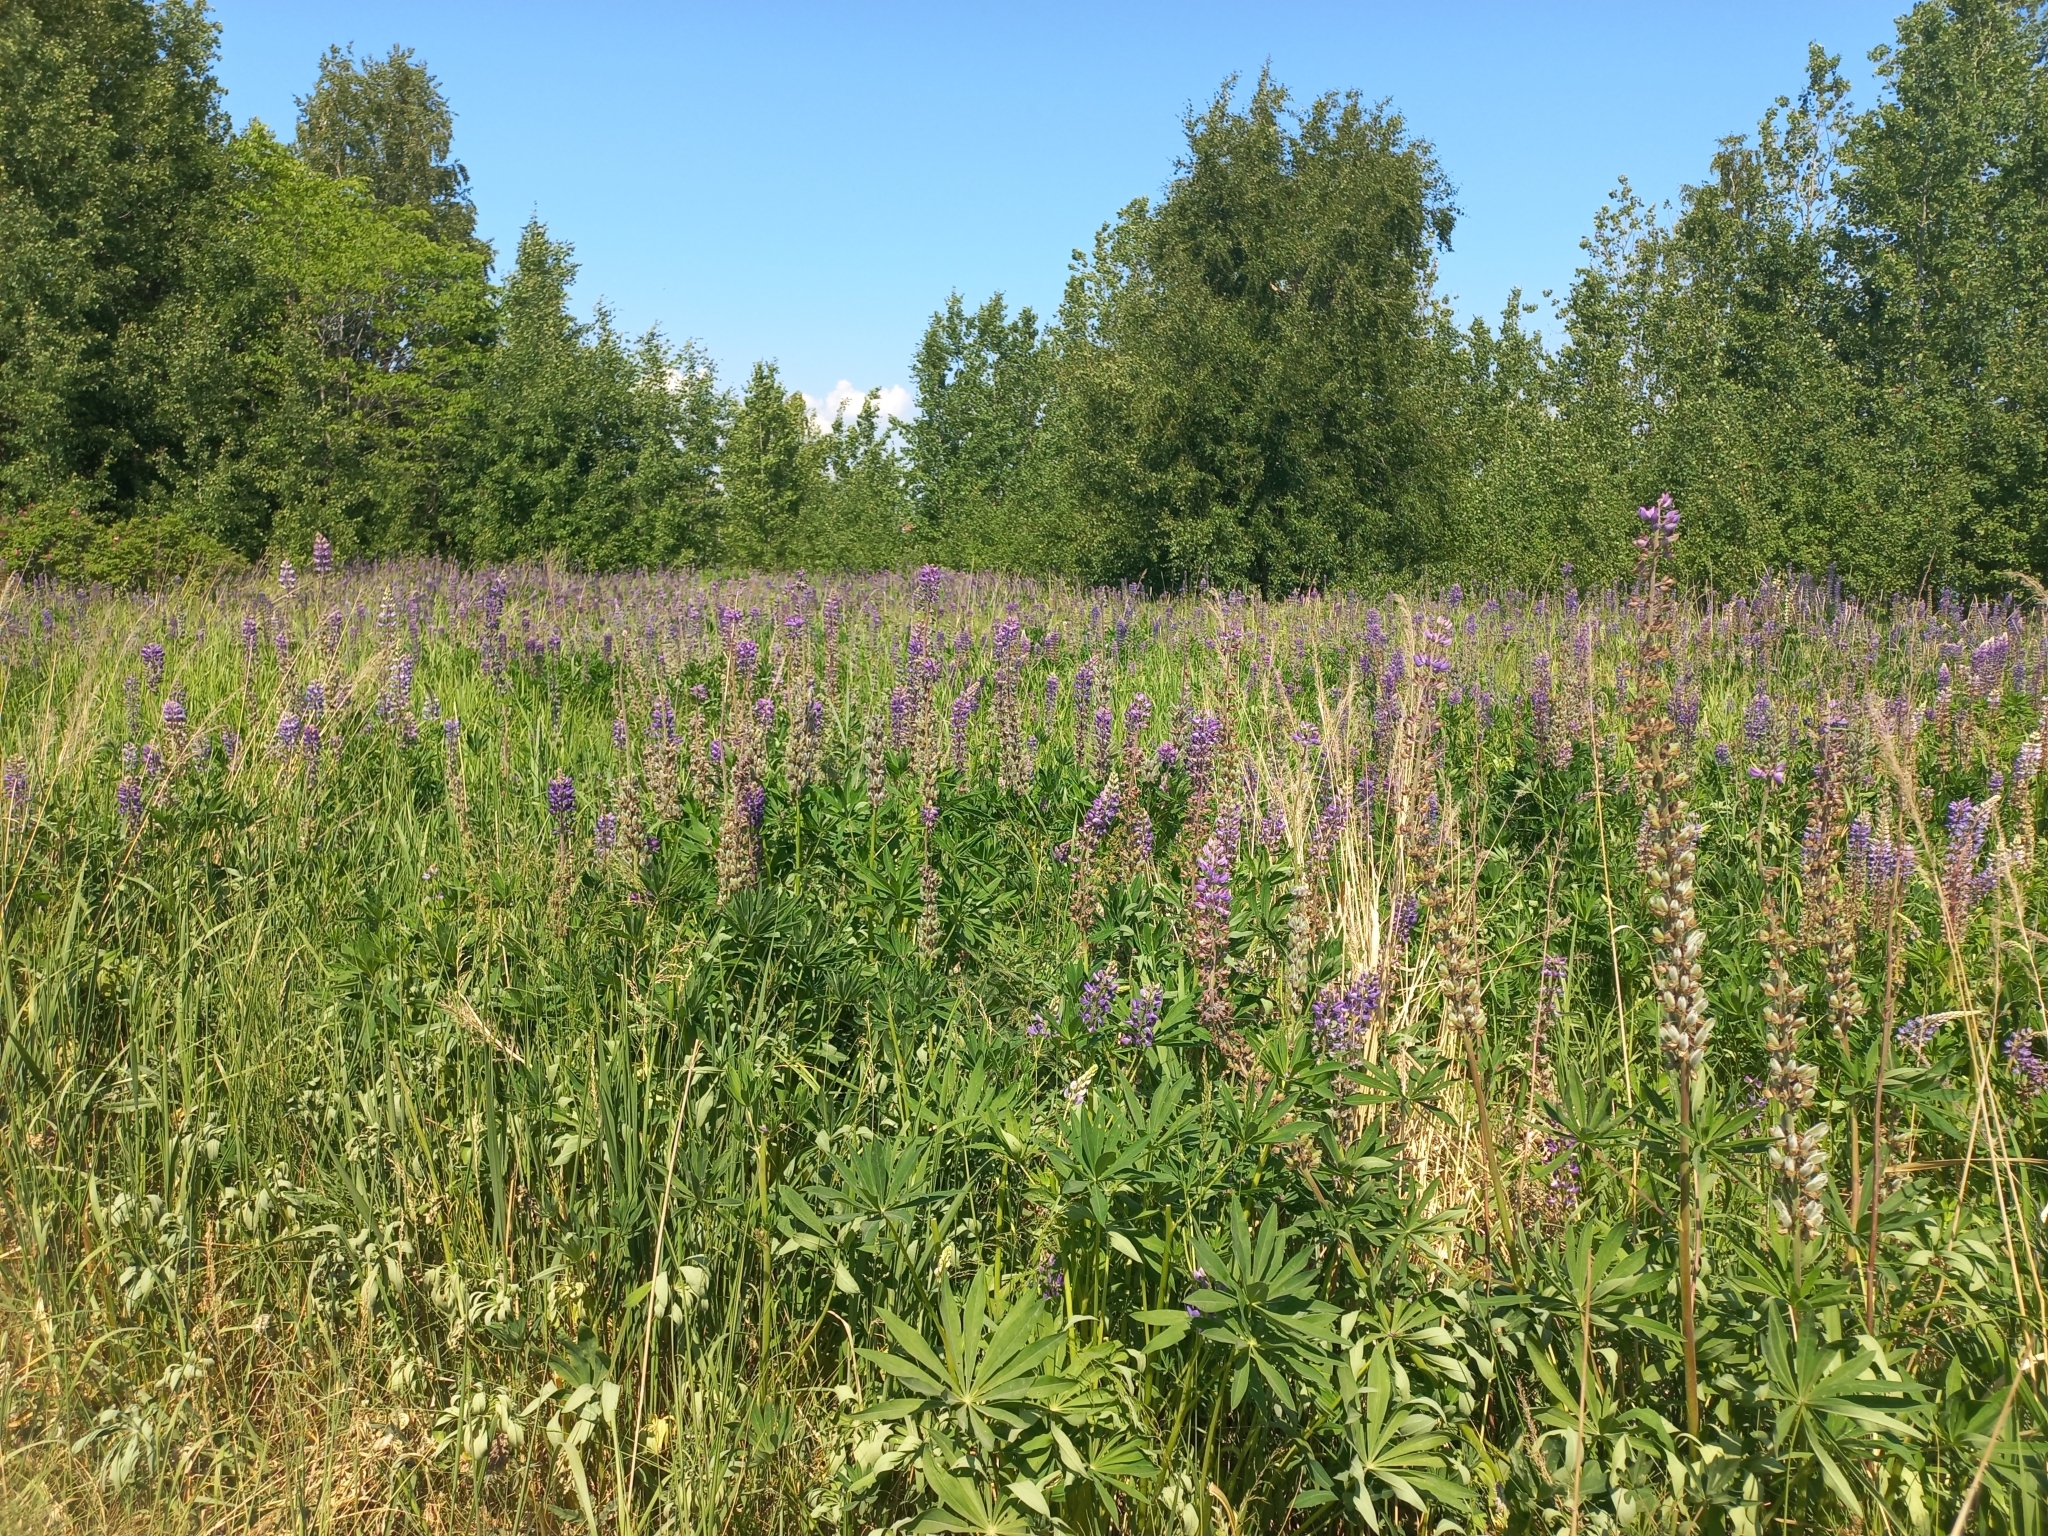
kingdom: Plantae
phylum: Tracheophyta
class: Magnoliopsida
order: Fabales
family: Fabaceae
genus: Lupinus
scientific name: Lupinus polyphyllus
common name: Garden lupin
